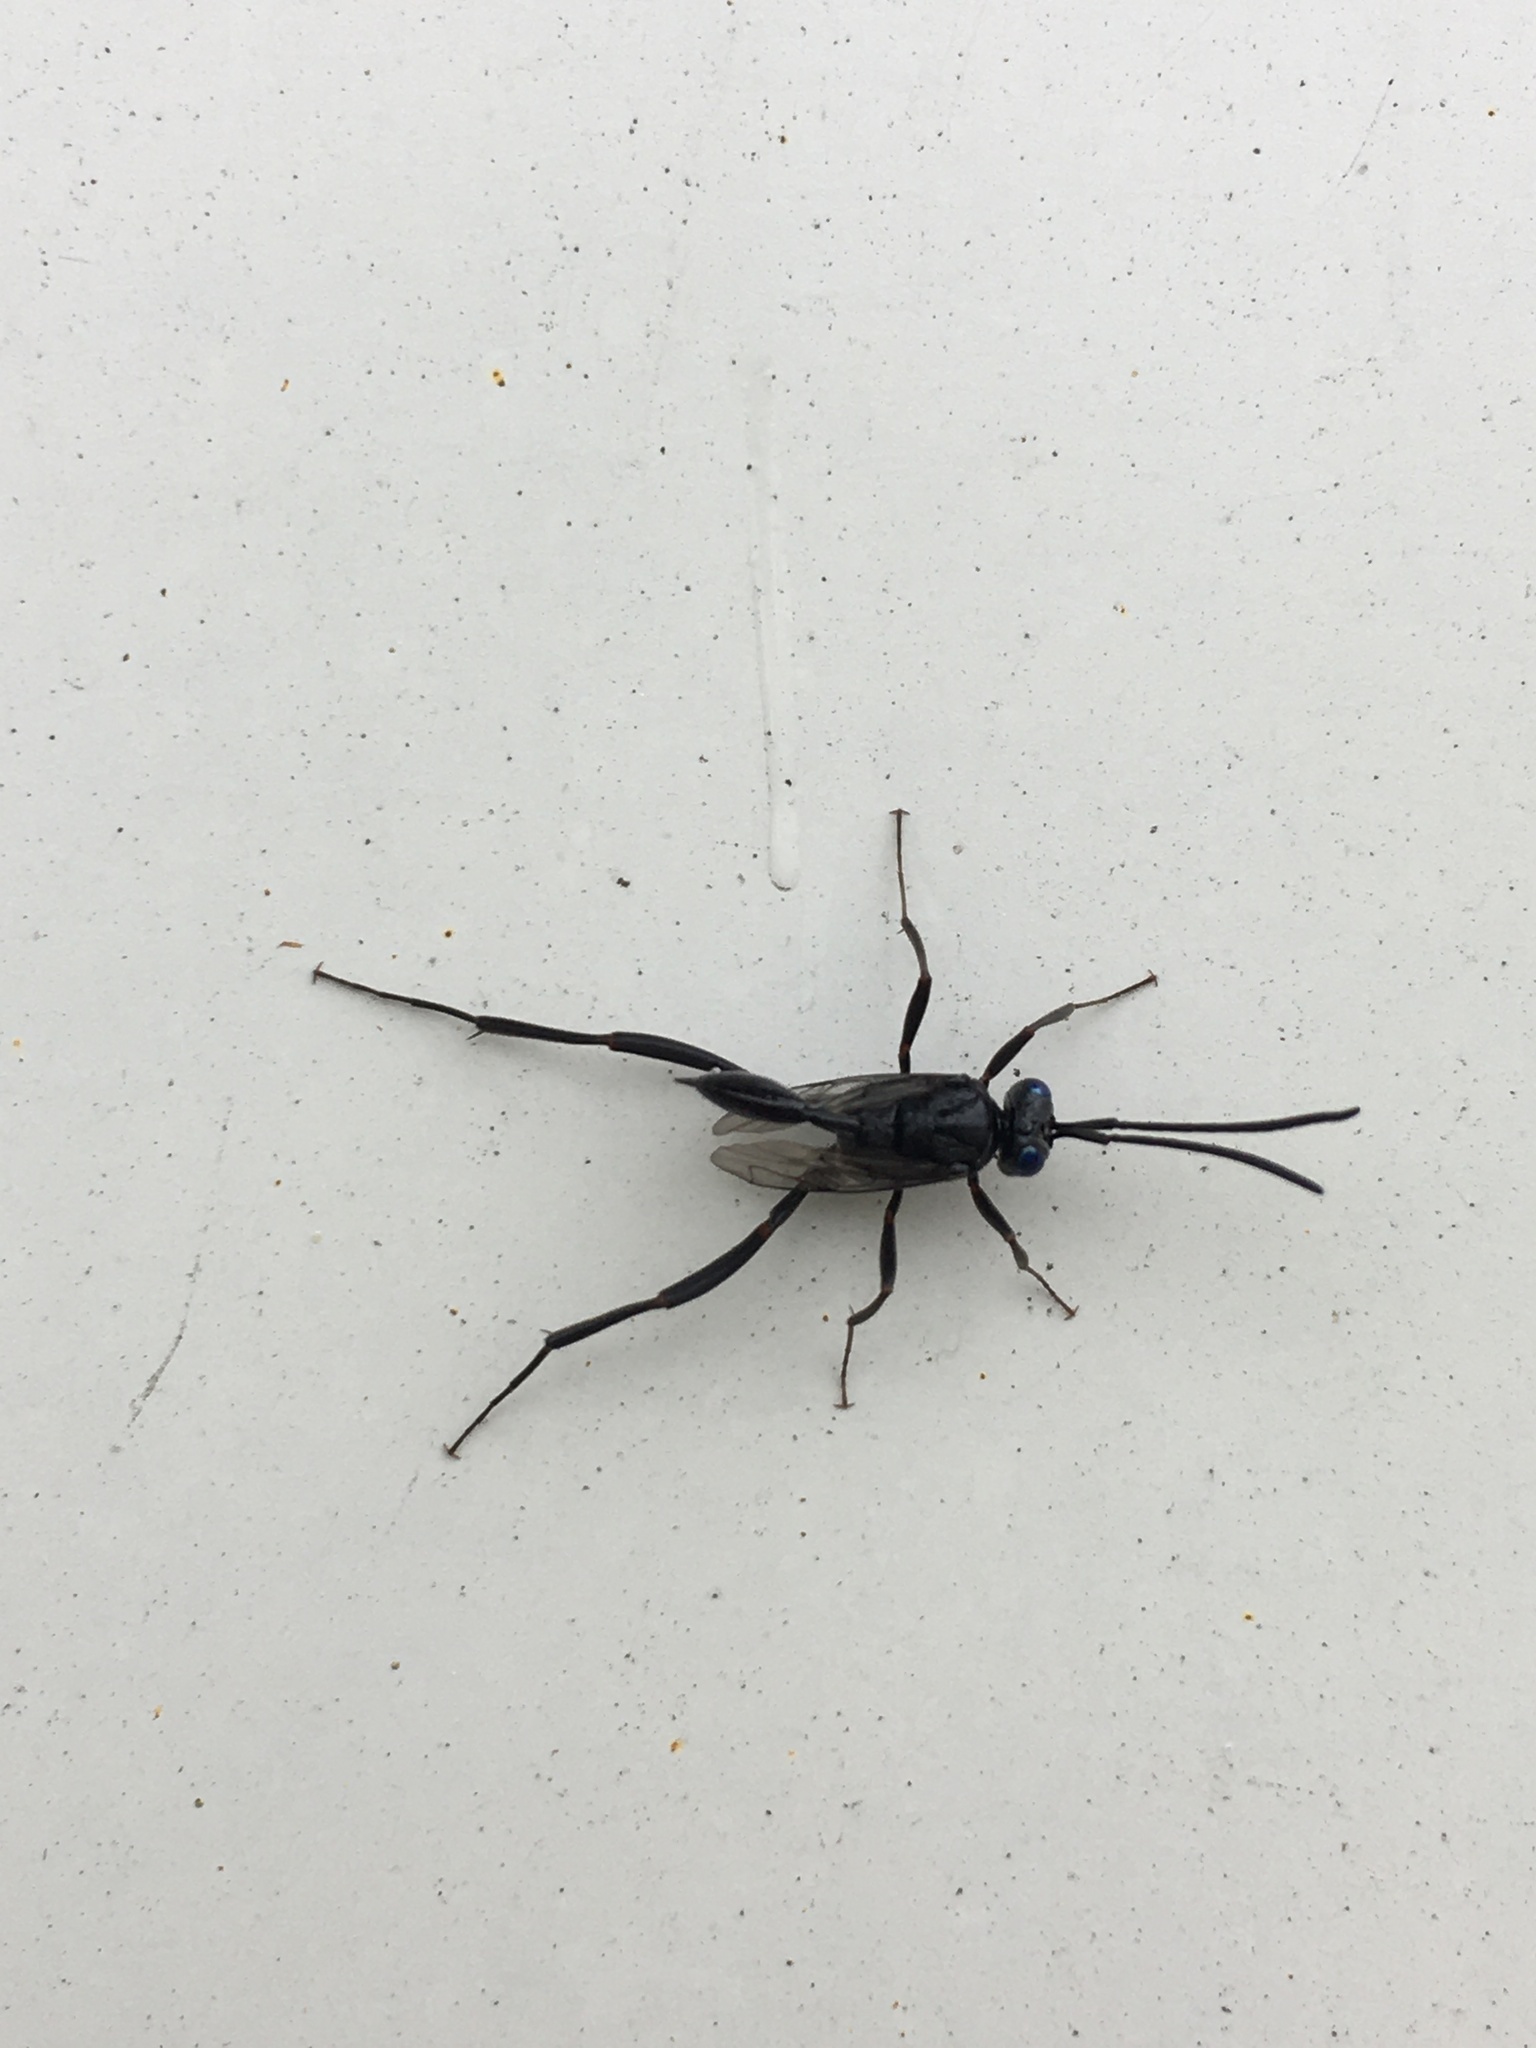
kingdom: Animalia
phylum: Arthropoda
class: Insecta
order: Hymenoptera
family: Evaniidae
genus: Evania
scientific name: Evania appendigaster
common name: Ensign wasp
